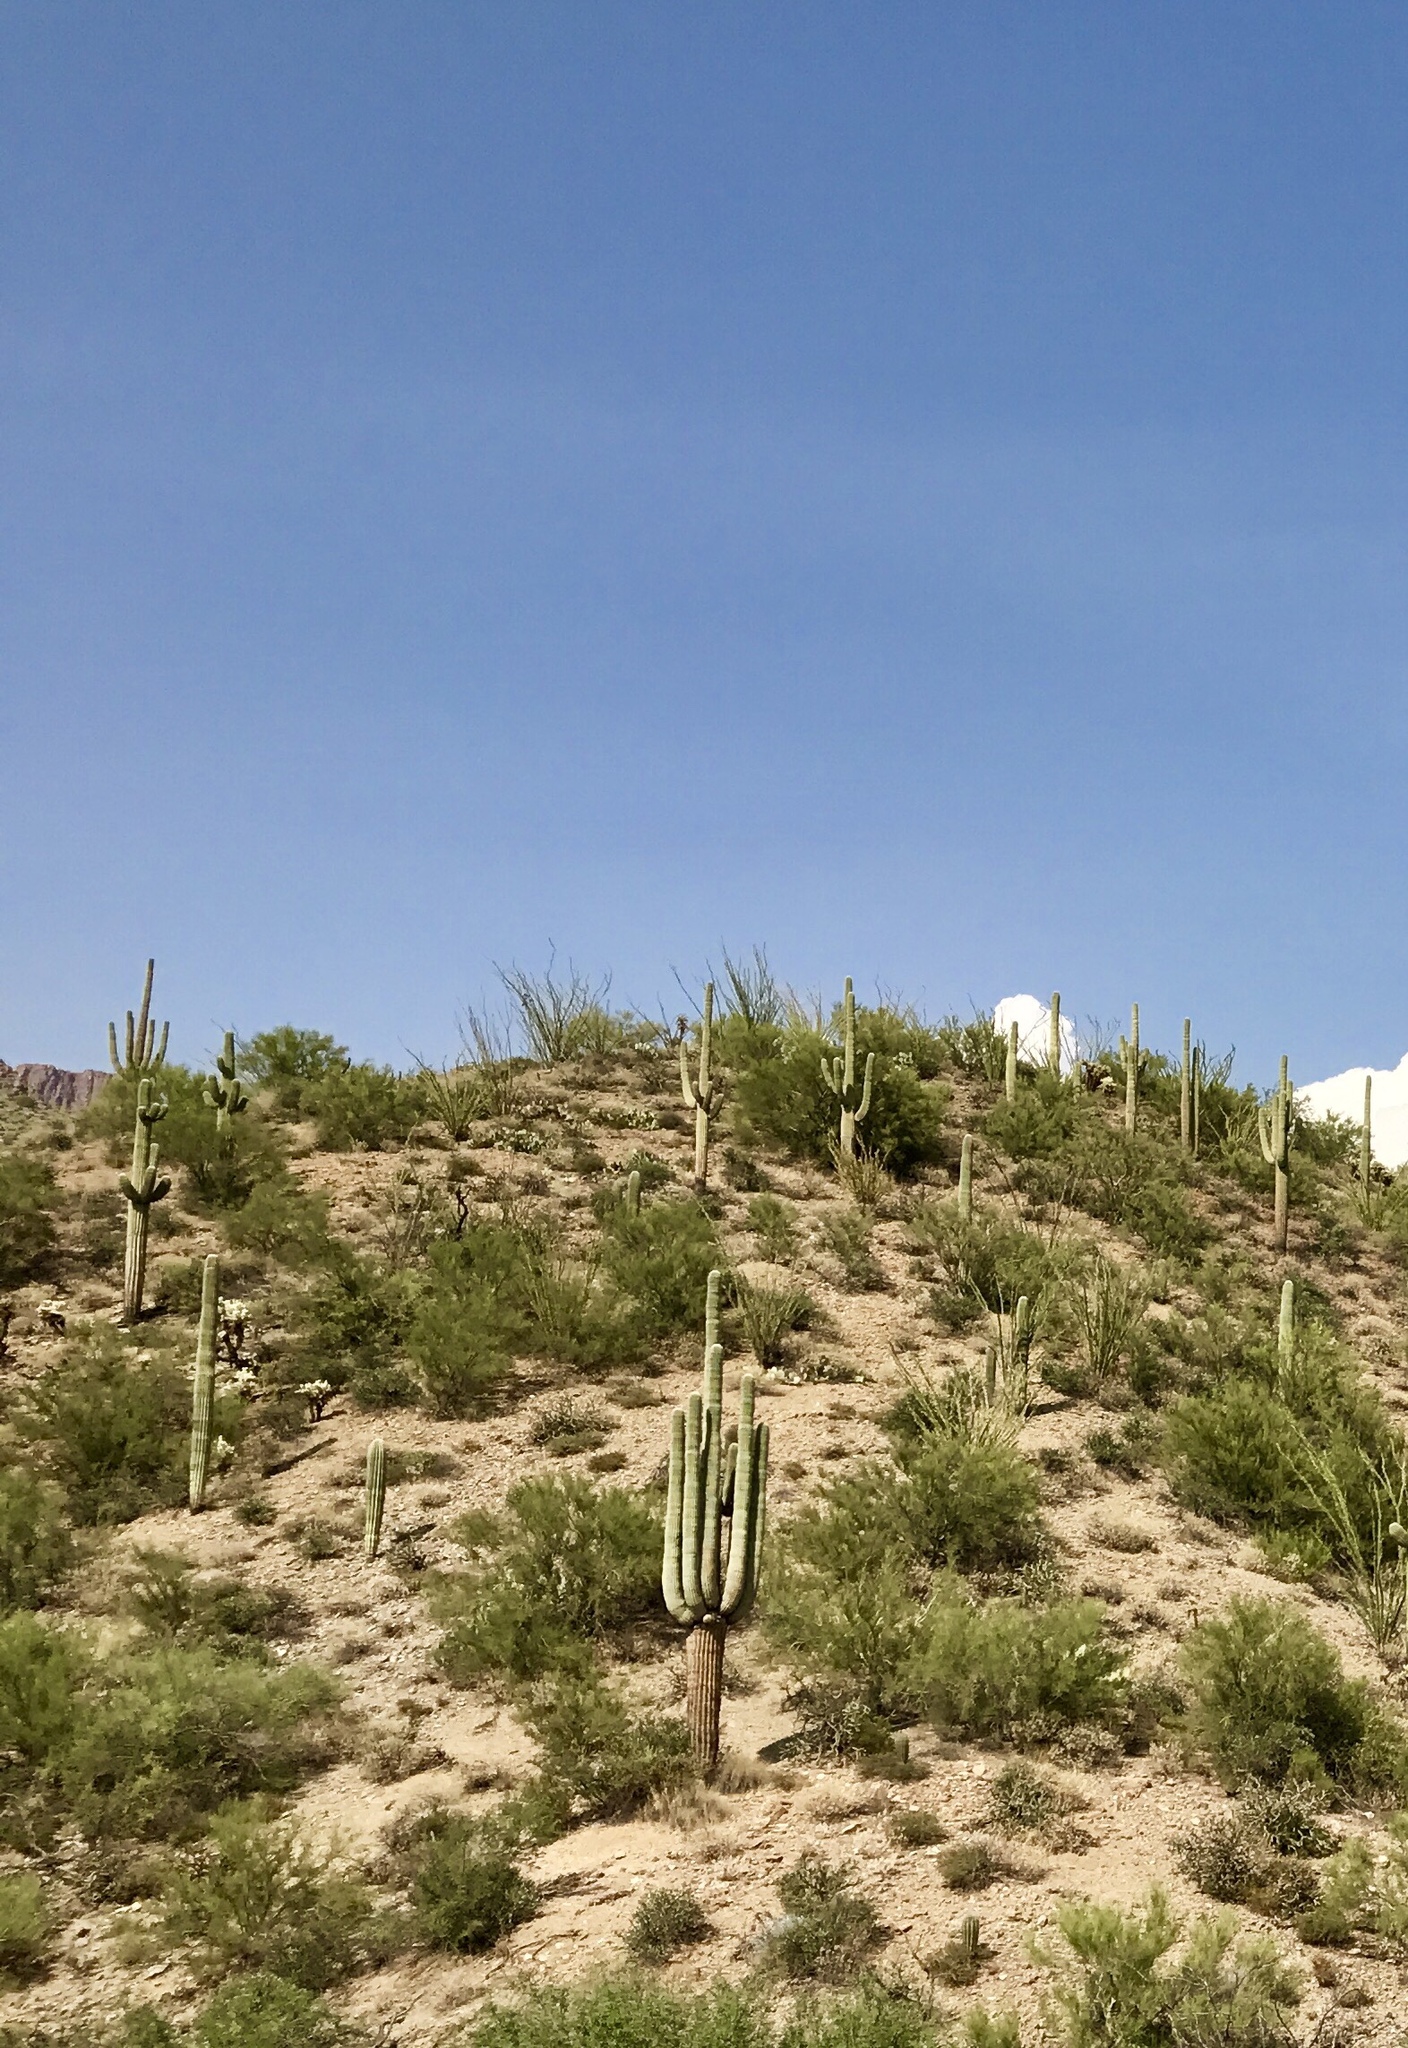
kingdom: Plantae
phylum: Tracheophyta
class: Magnoliopsida
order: Caryophyllales
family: Cactaceae
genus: Carnegiea
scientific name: Carnegiea gigantea
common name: Saguaro
